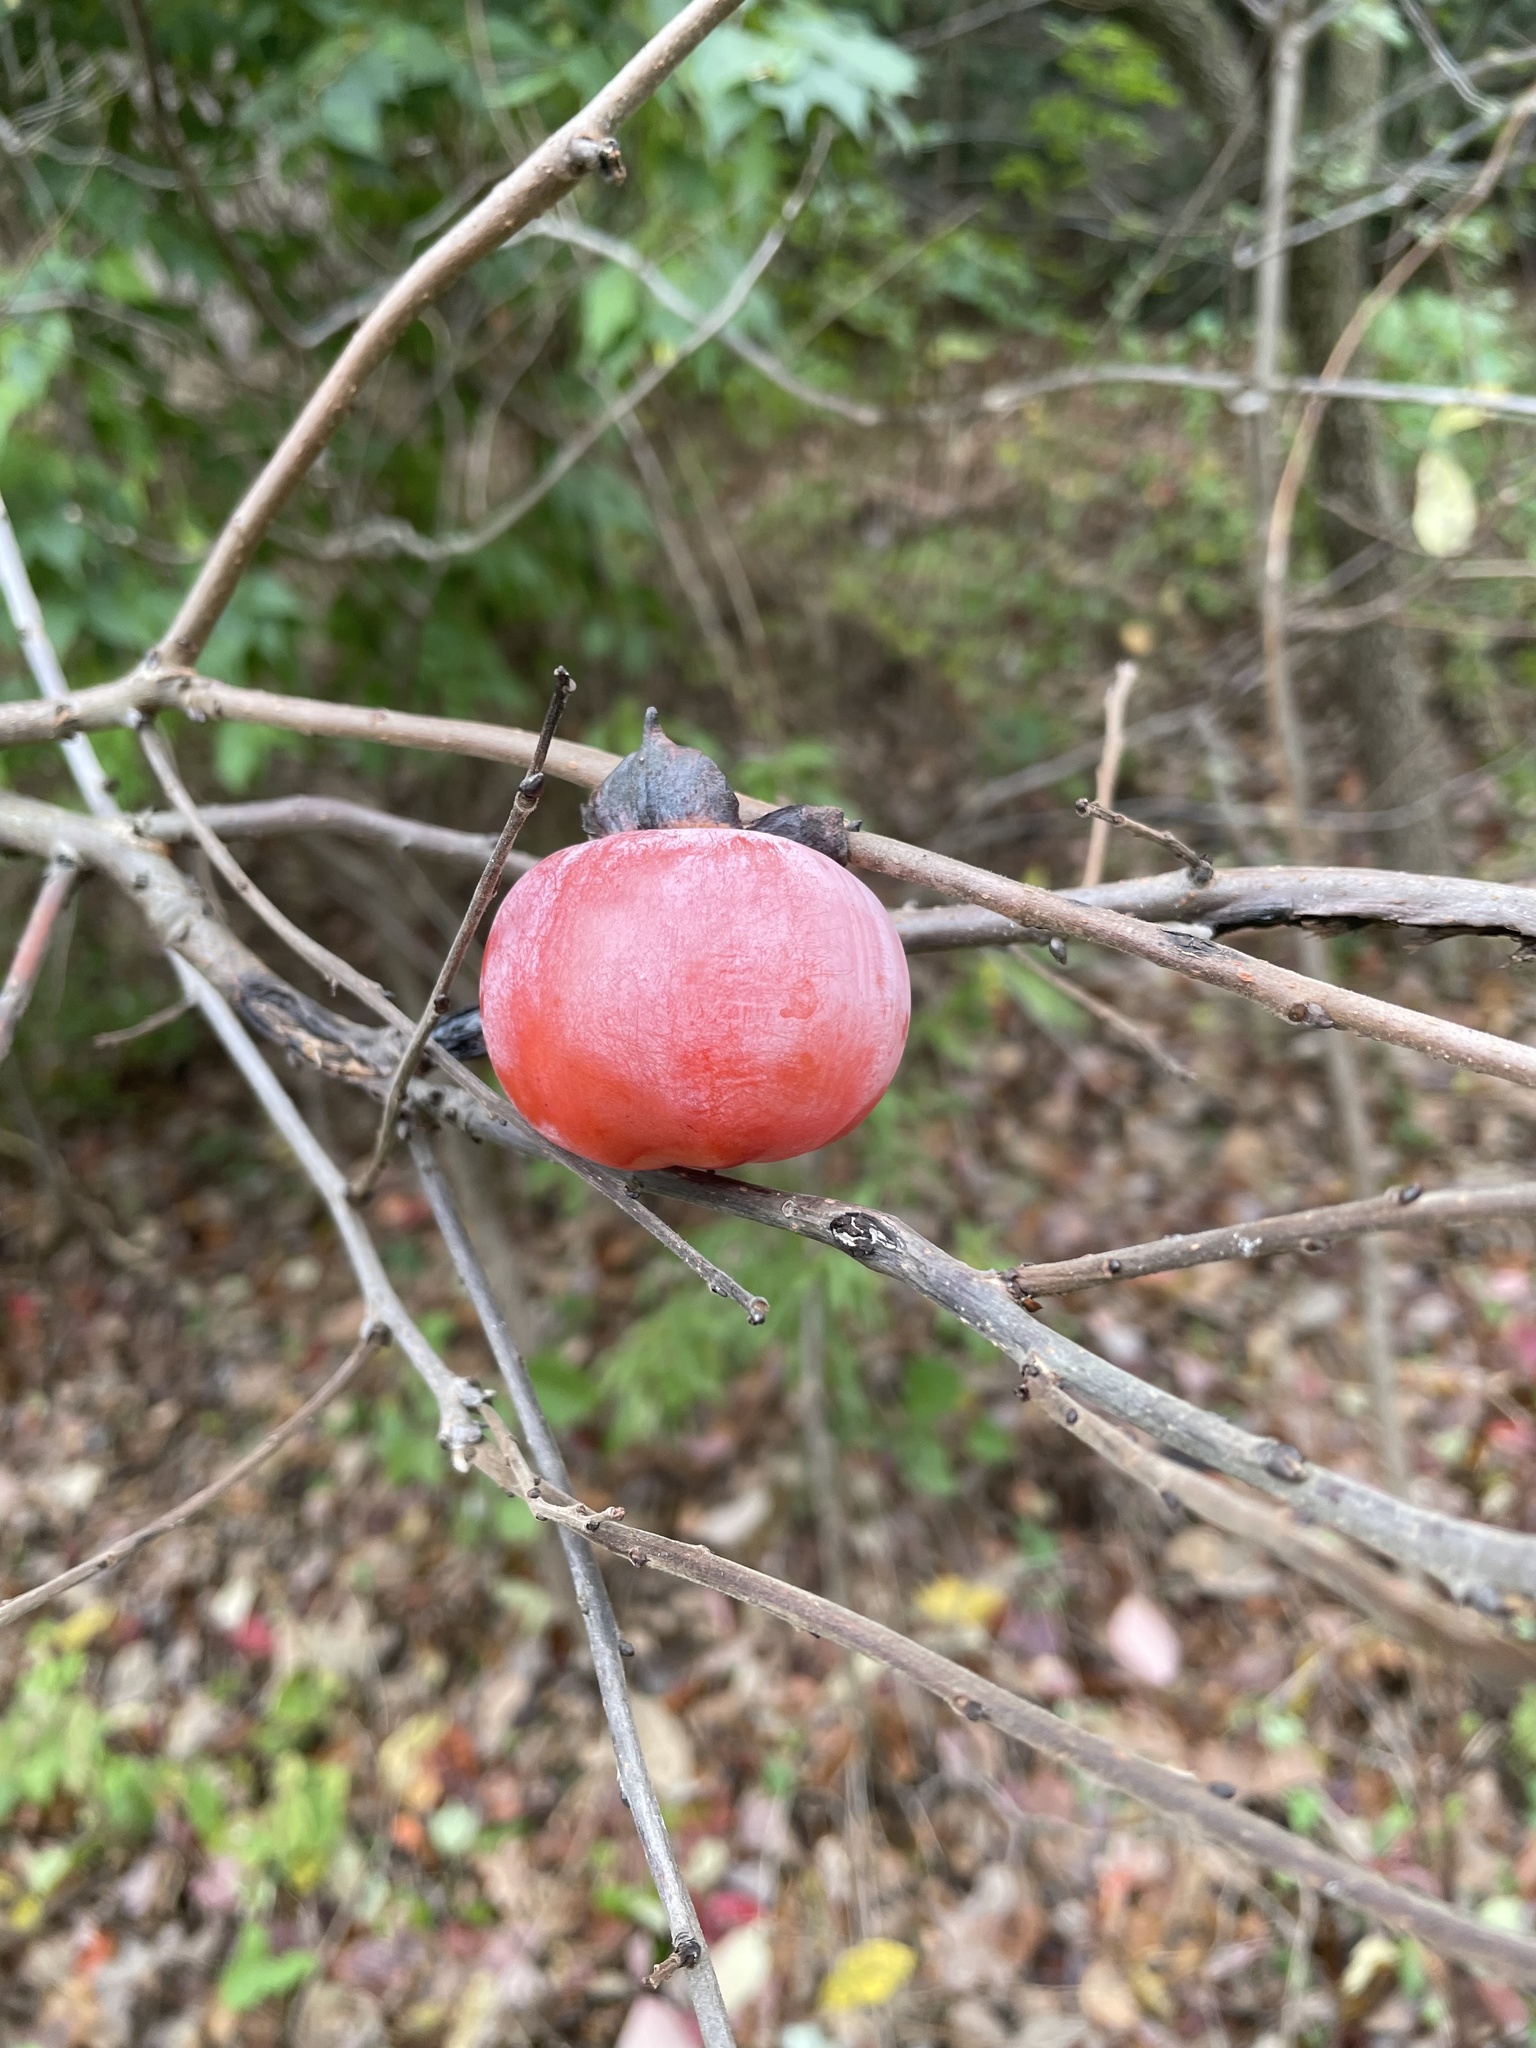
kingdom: Plantae
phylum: Tracheophyta
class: Magnoliopsida
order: Ericales
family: Ebenaceae
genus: Diospyros
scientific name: Diospyros virginiana
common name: Persimmon
